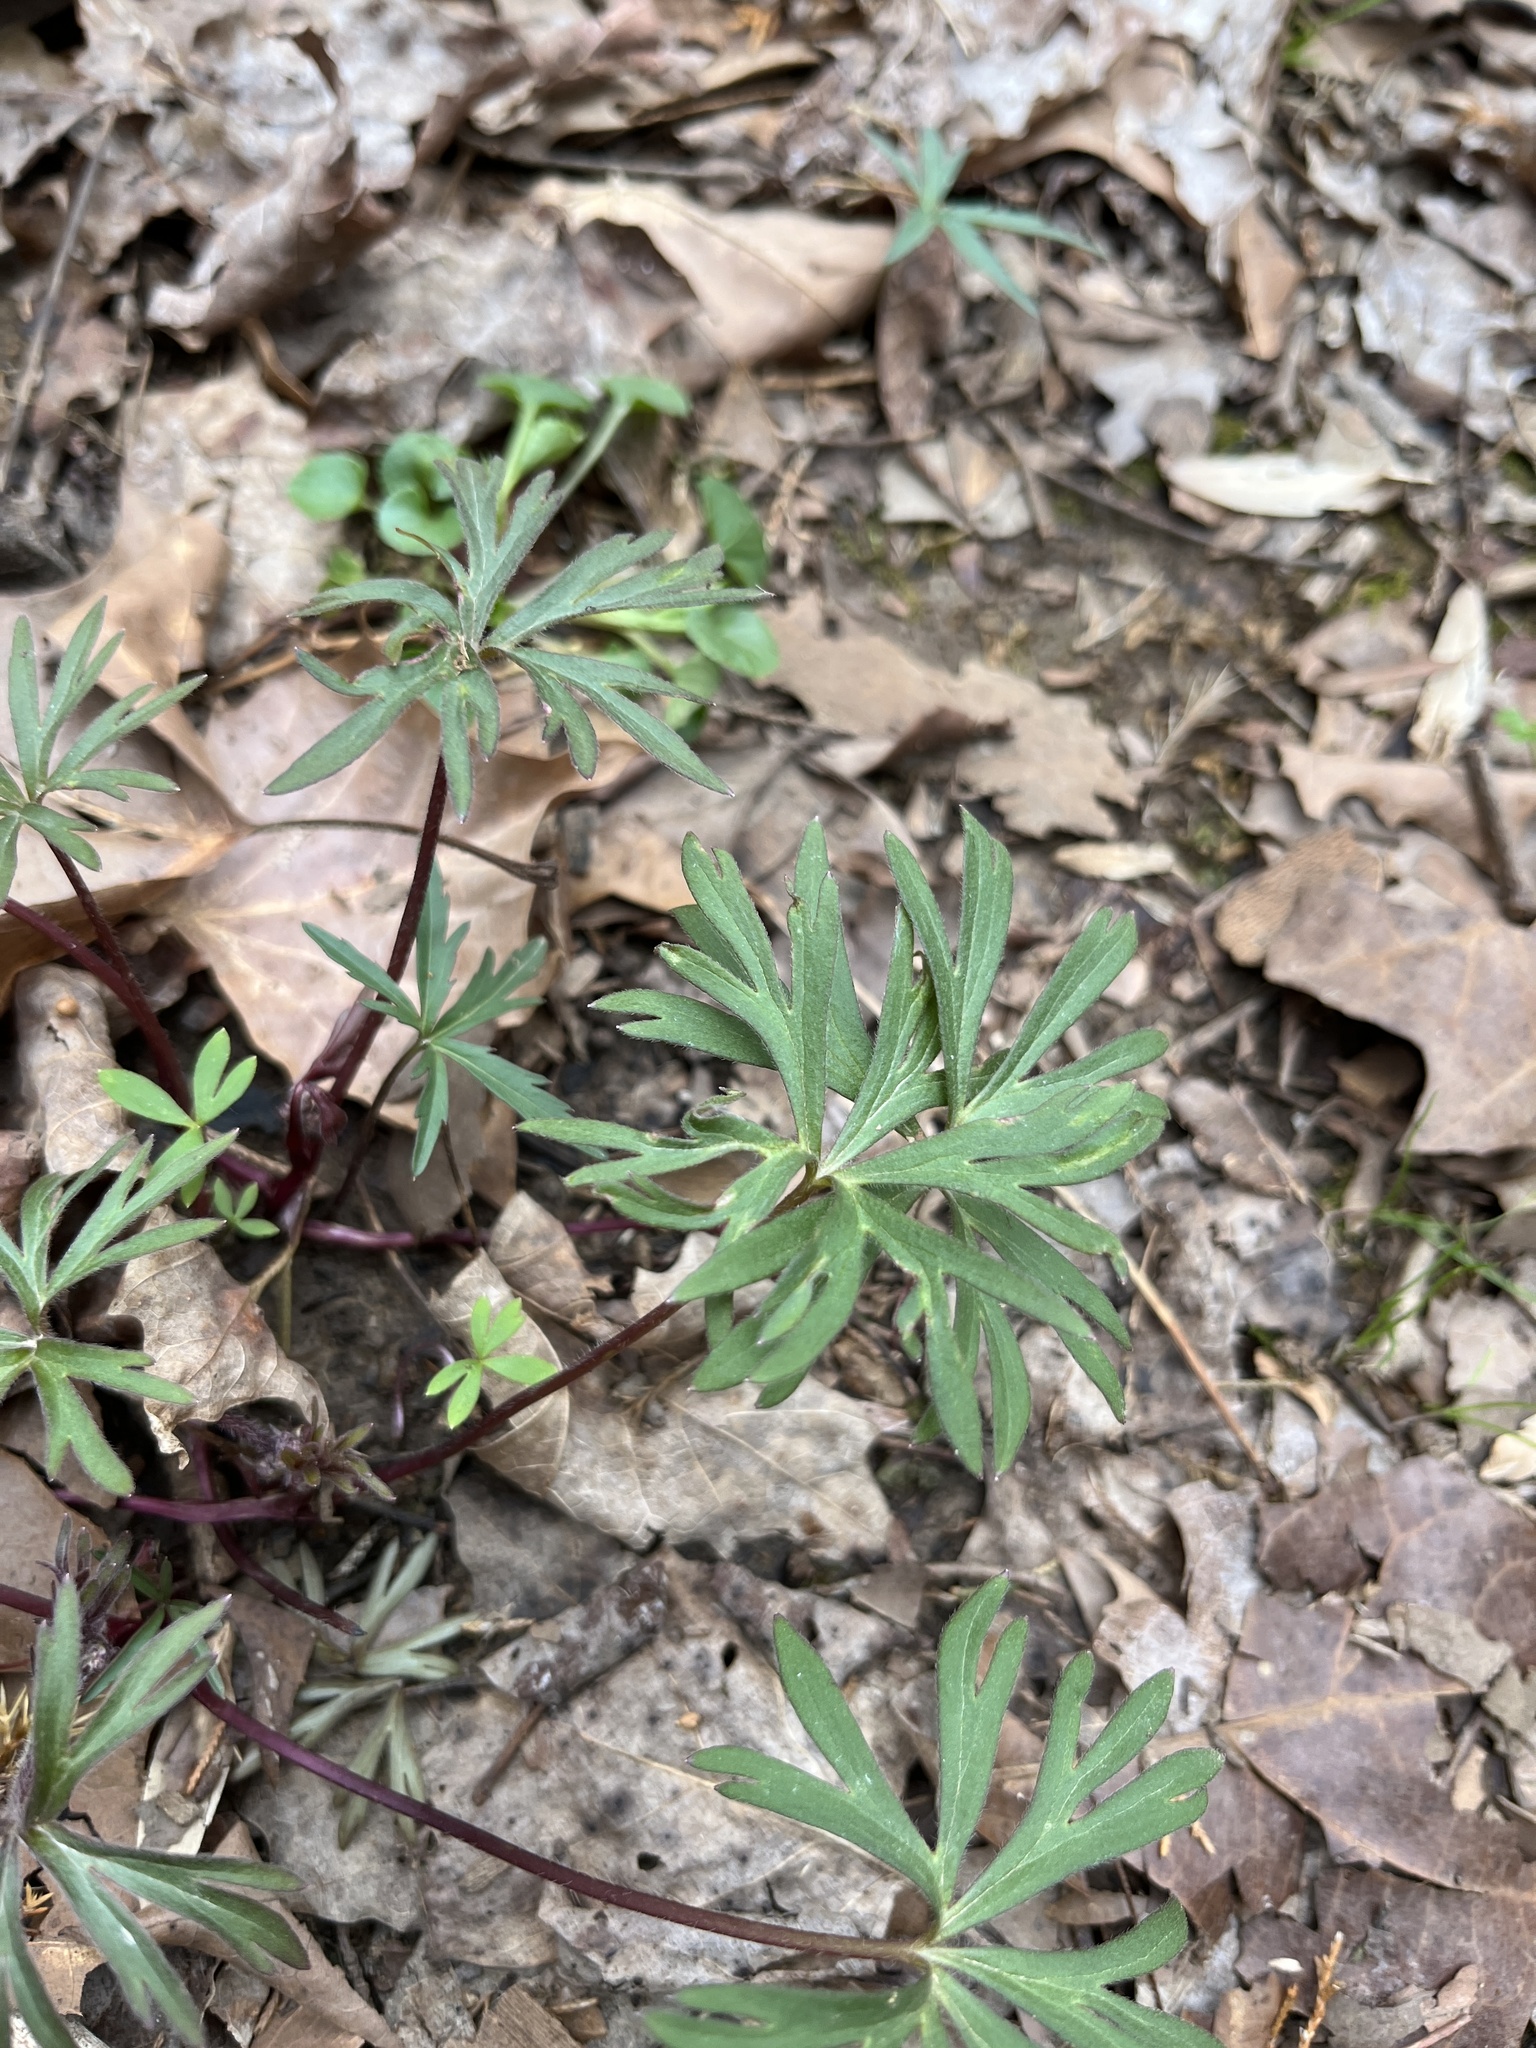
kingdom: Plantae
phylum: Tracheophyta
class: Magnoliopsida
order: Ranunculales
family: Ranunculaceae
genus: Delphinium
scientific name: Delphinium tricorne
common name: Dwarf larkspur
